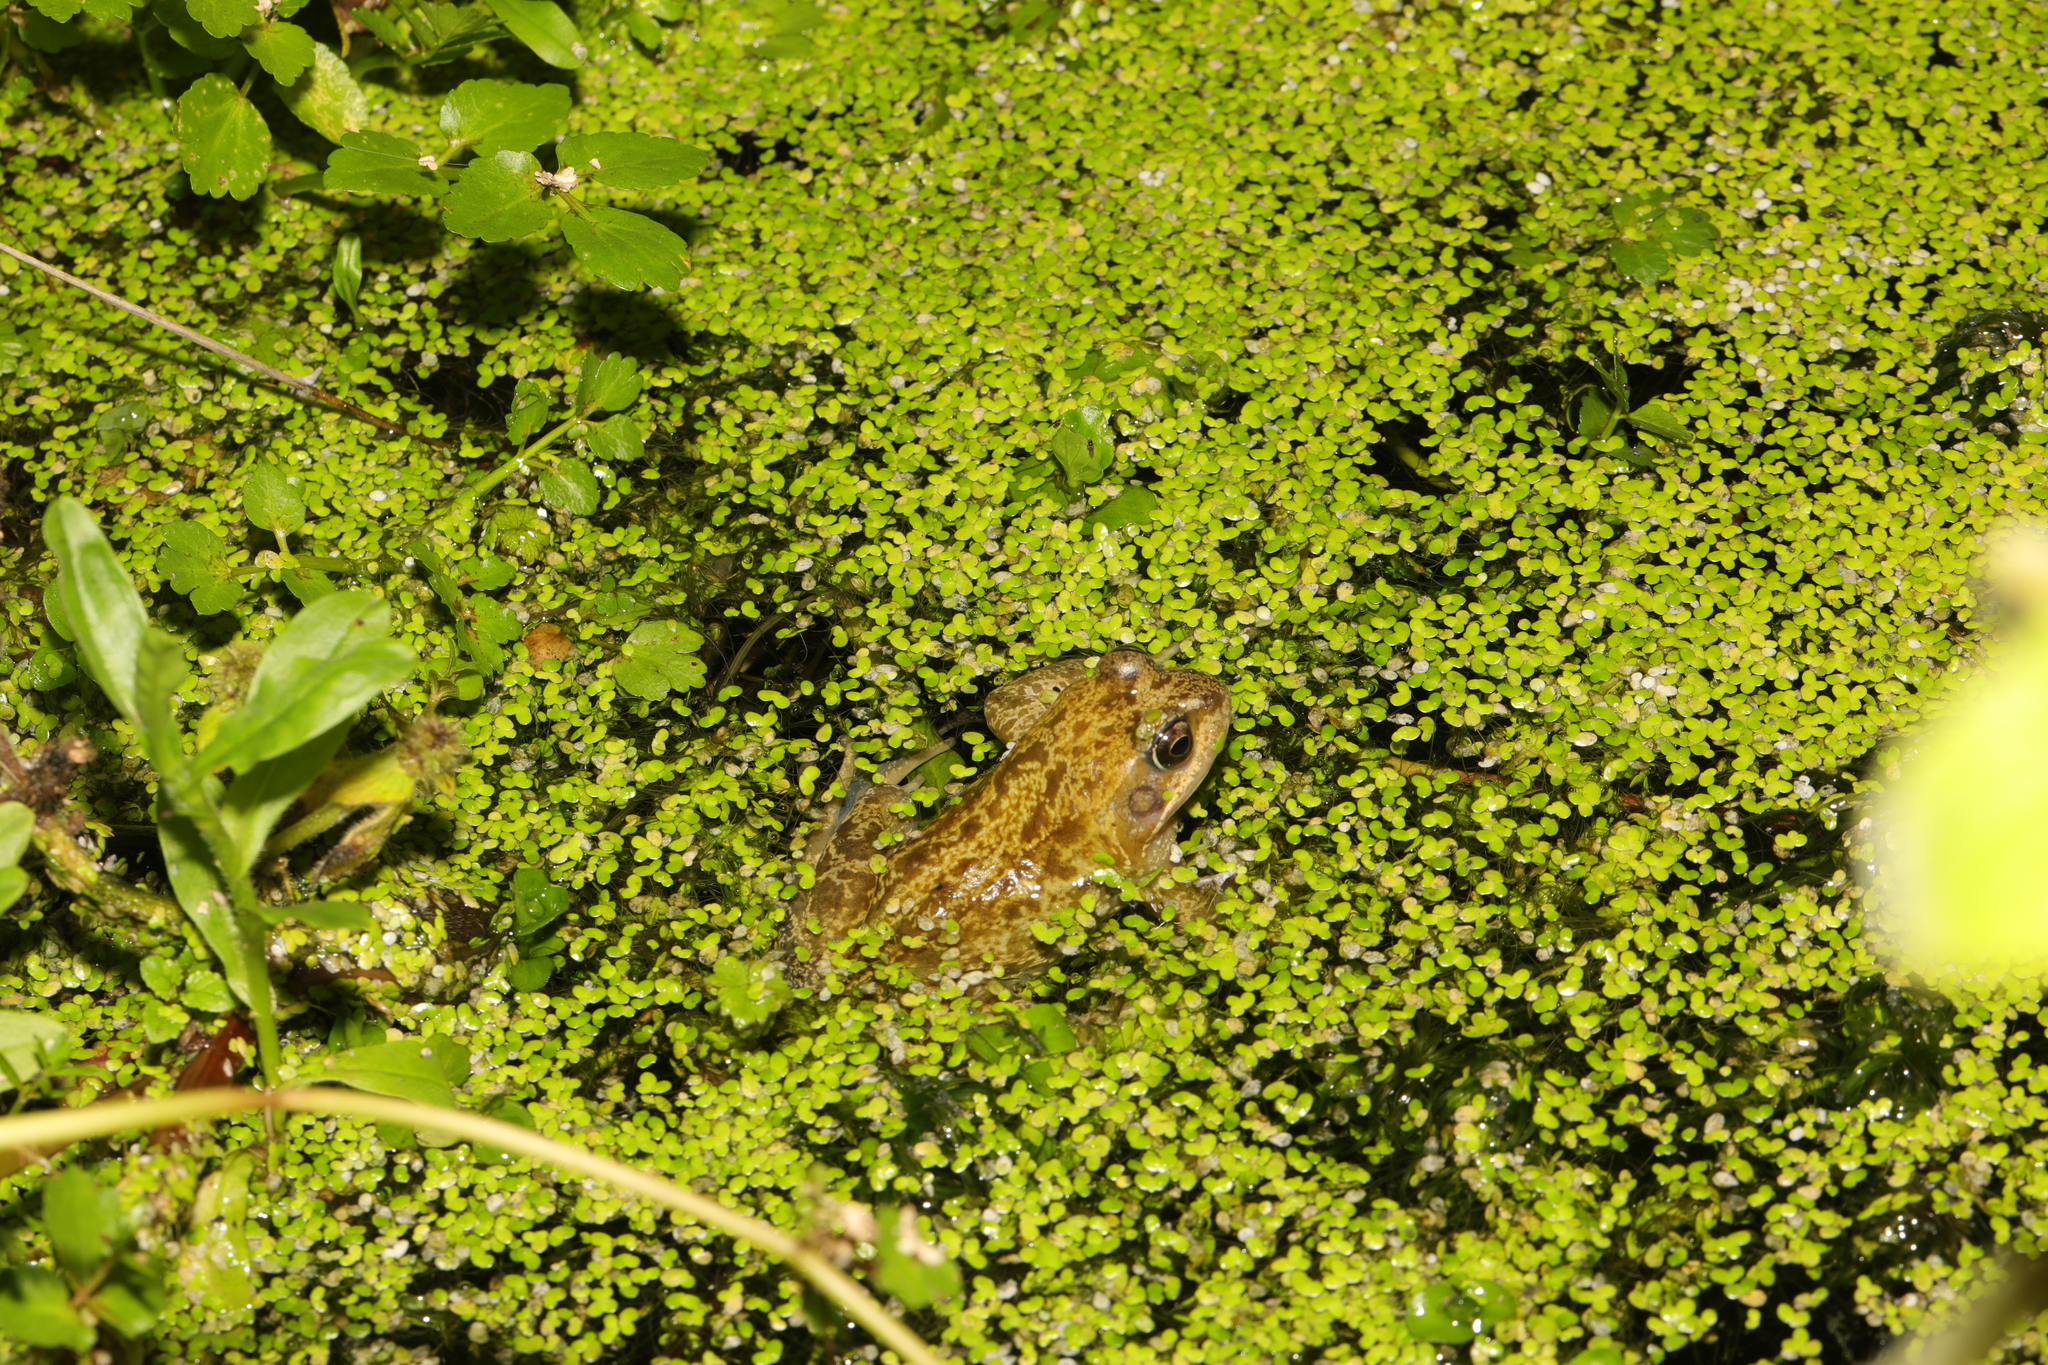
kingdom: Animalia
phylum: Chordata
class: Amphibia
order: Anura
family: Ranidae
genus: Rana
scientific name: Rana temporaria
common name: Common frog
